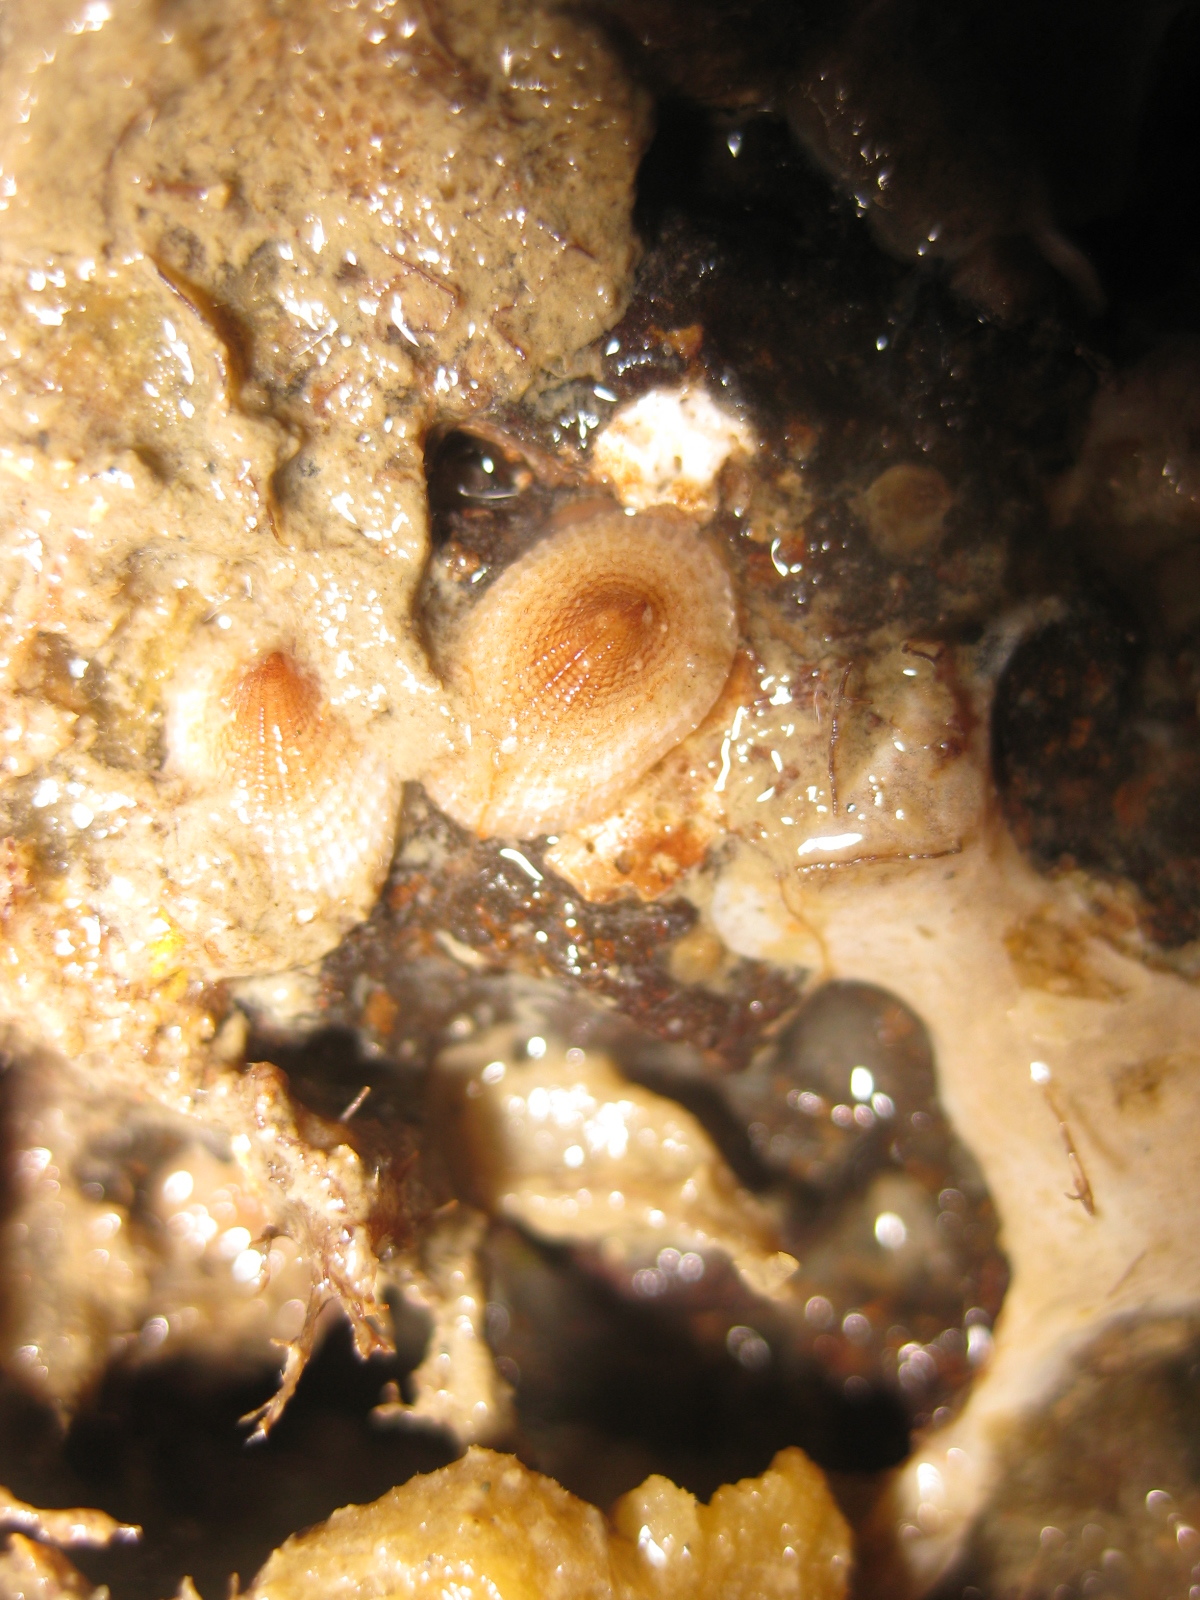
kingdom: Animalia
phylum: Mollusca
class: Gastropoda
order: Lepetellida
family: Fissurellidae
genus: Tugali
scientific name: Tugali suteri
